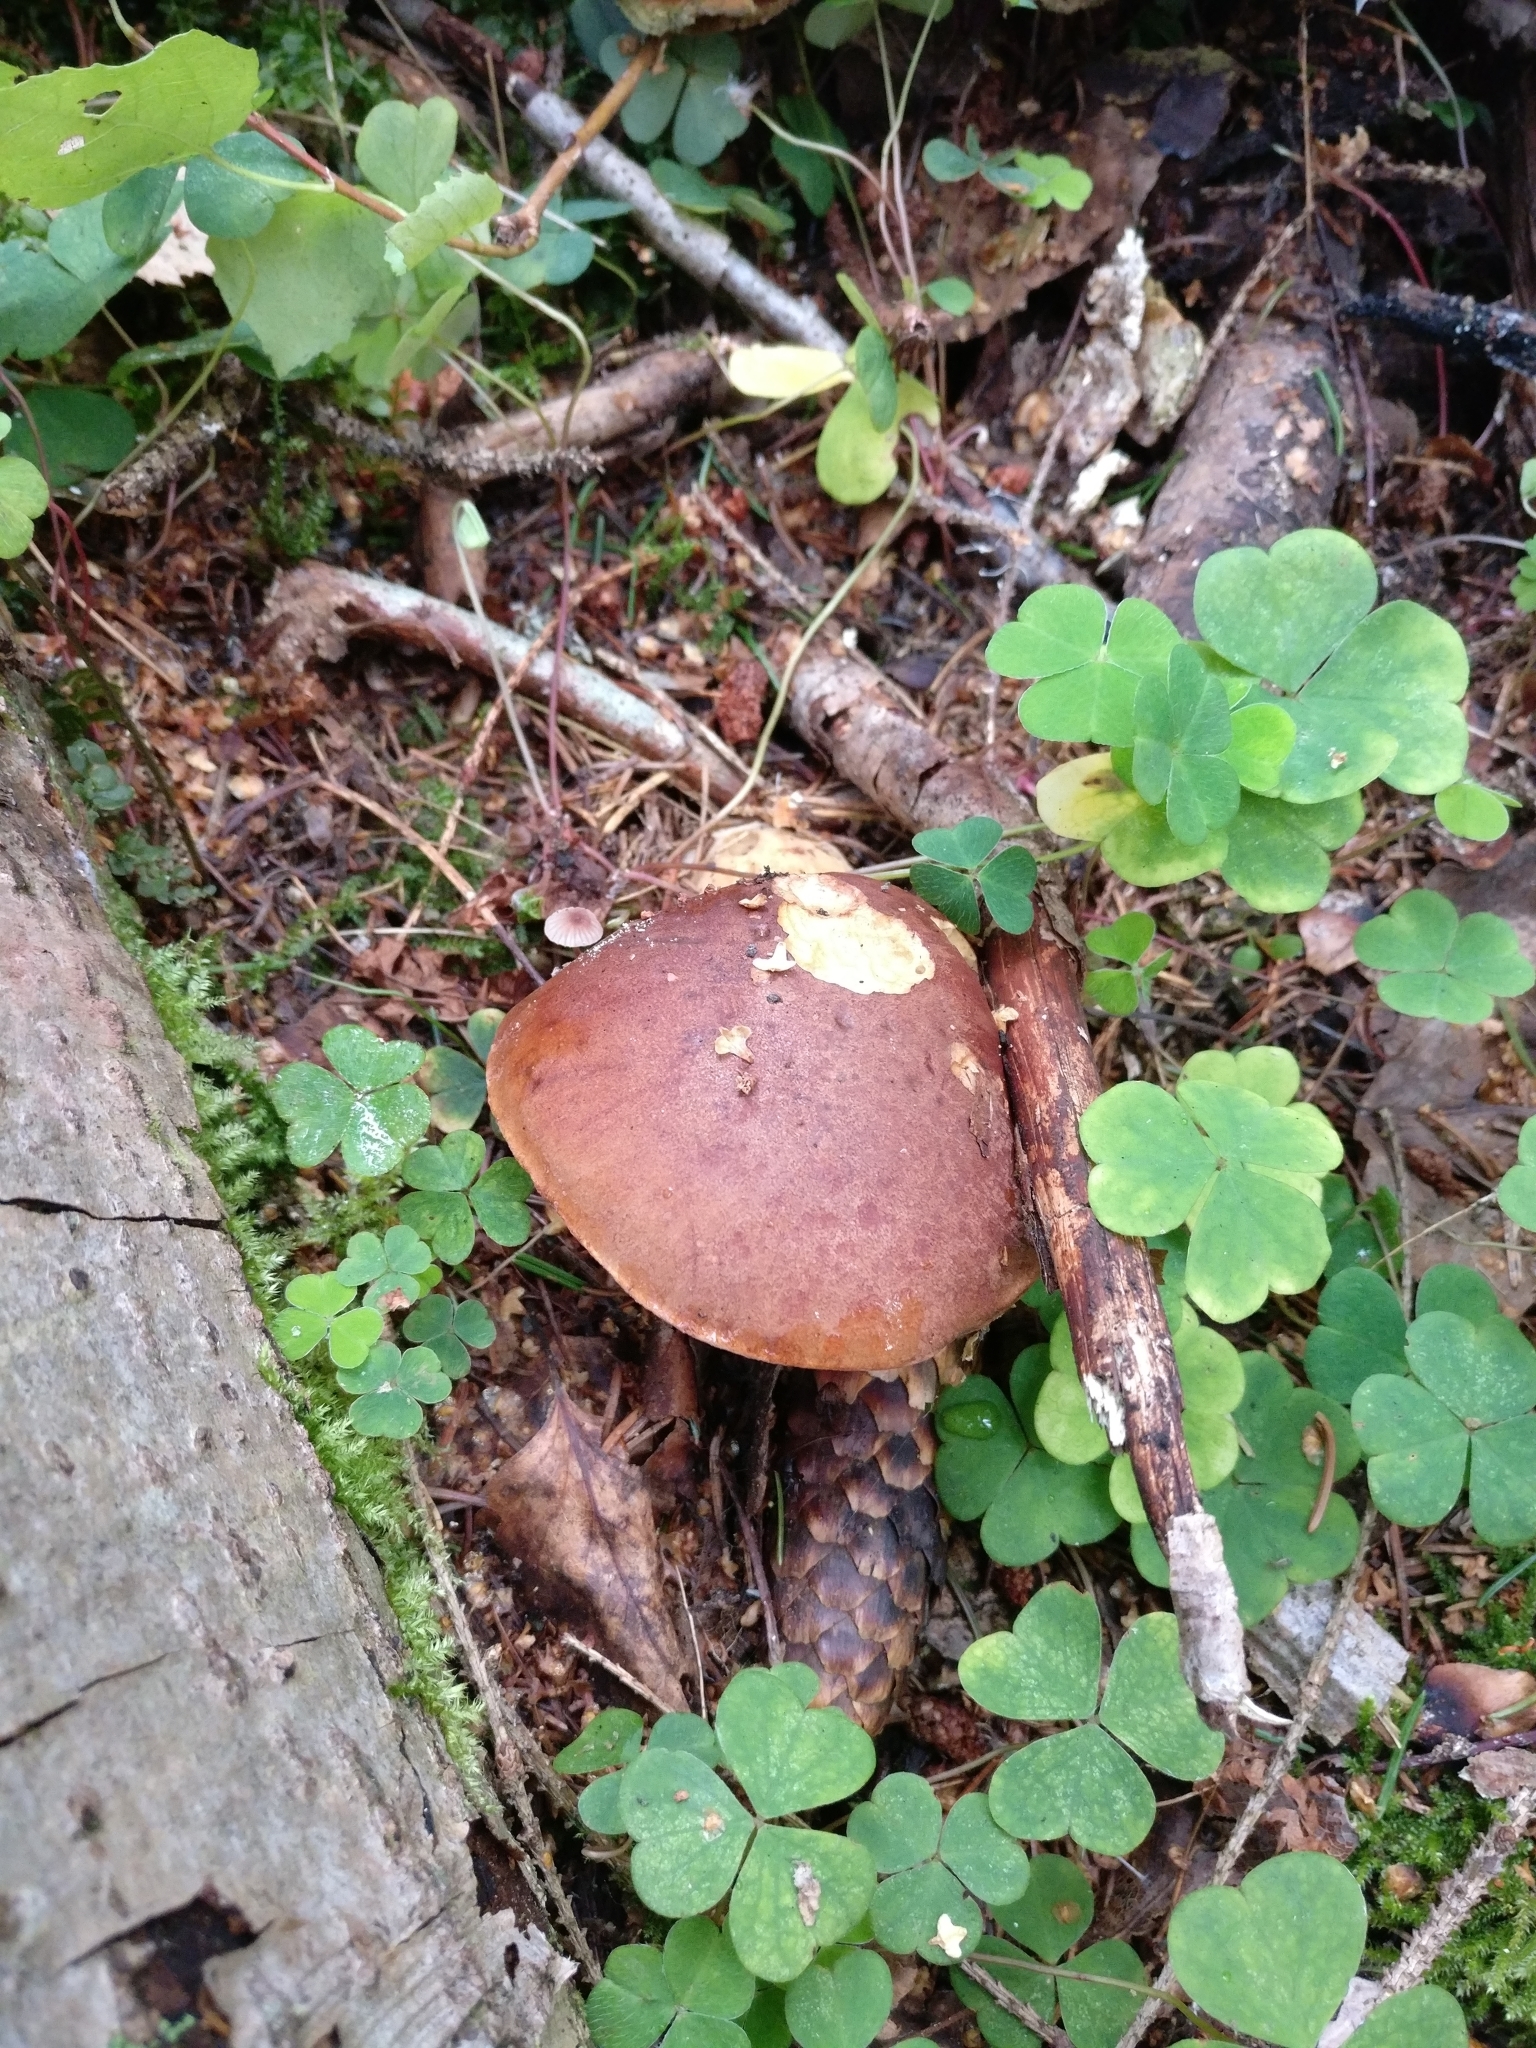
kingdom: Fungi
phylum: Basidiomycota
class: Agaricomycetes
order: Boletales
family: Boletaceae
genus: Imleria
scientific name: Imleria badia
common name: Bay bolete
